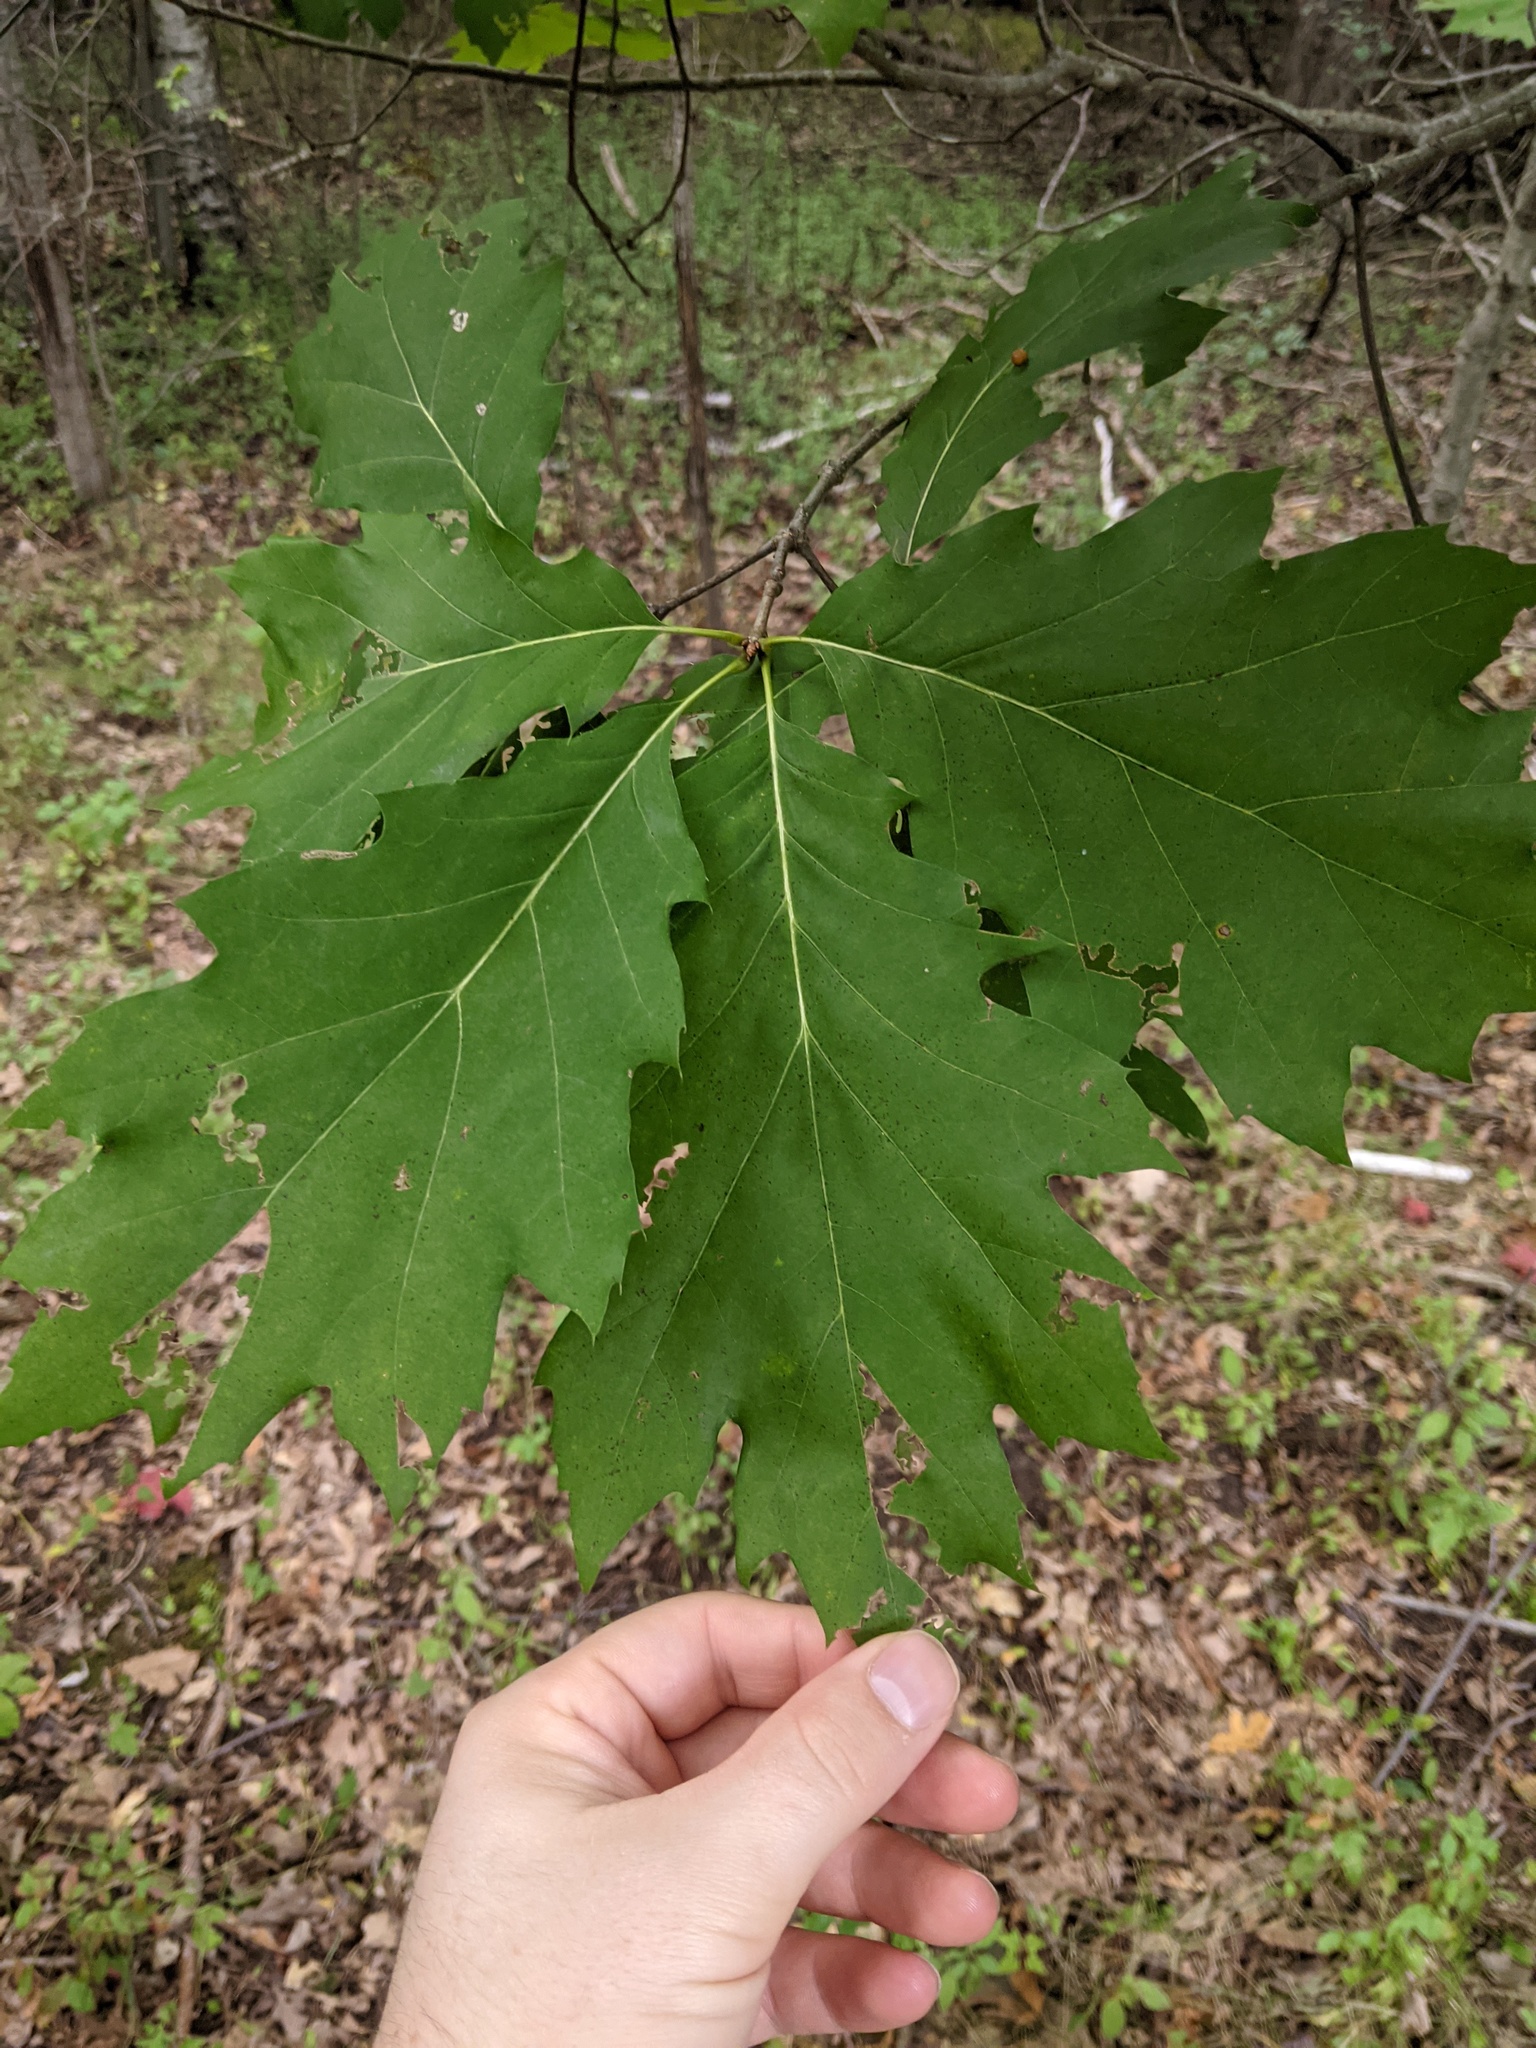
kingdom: Plantae
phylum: Tracheophyta
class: Magnoliopsida
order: Fagales
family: Fagaceae
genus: Quercus
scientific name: Quercus rubra
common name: Red oak
